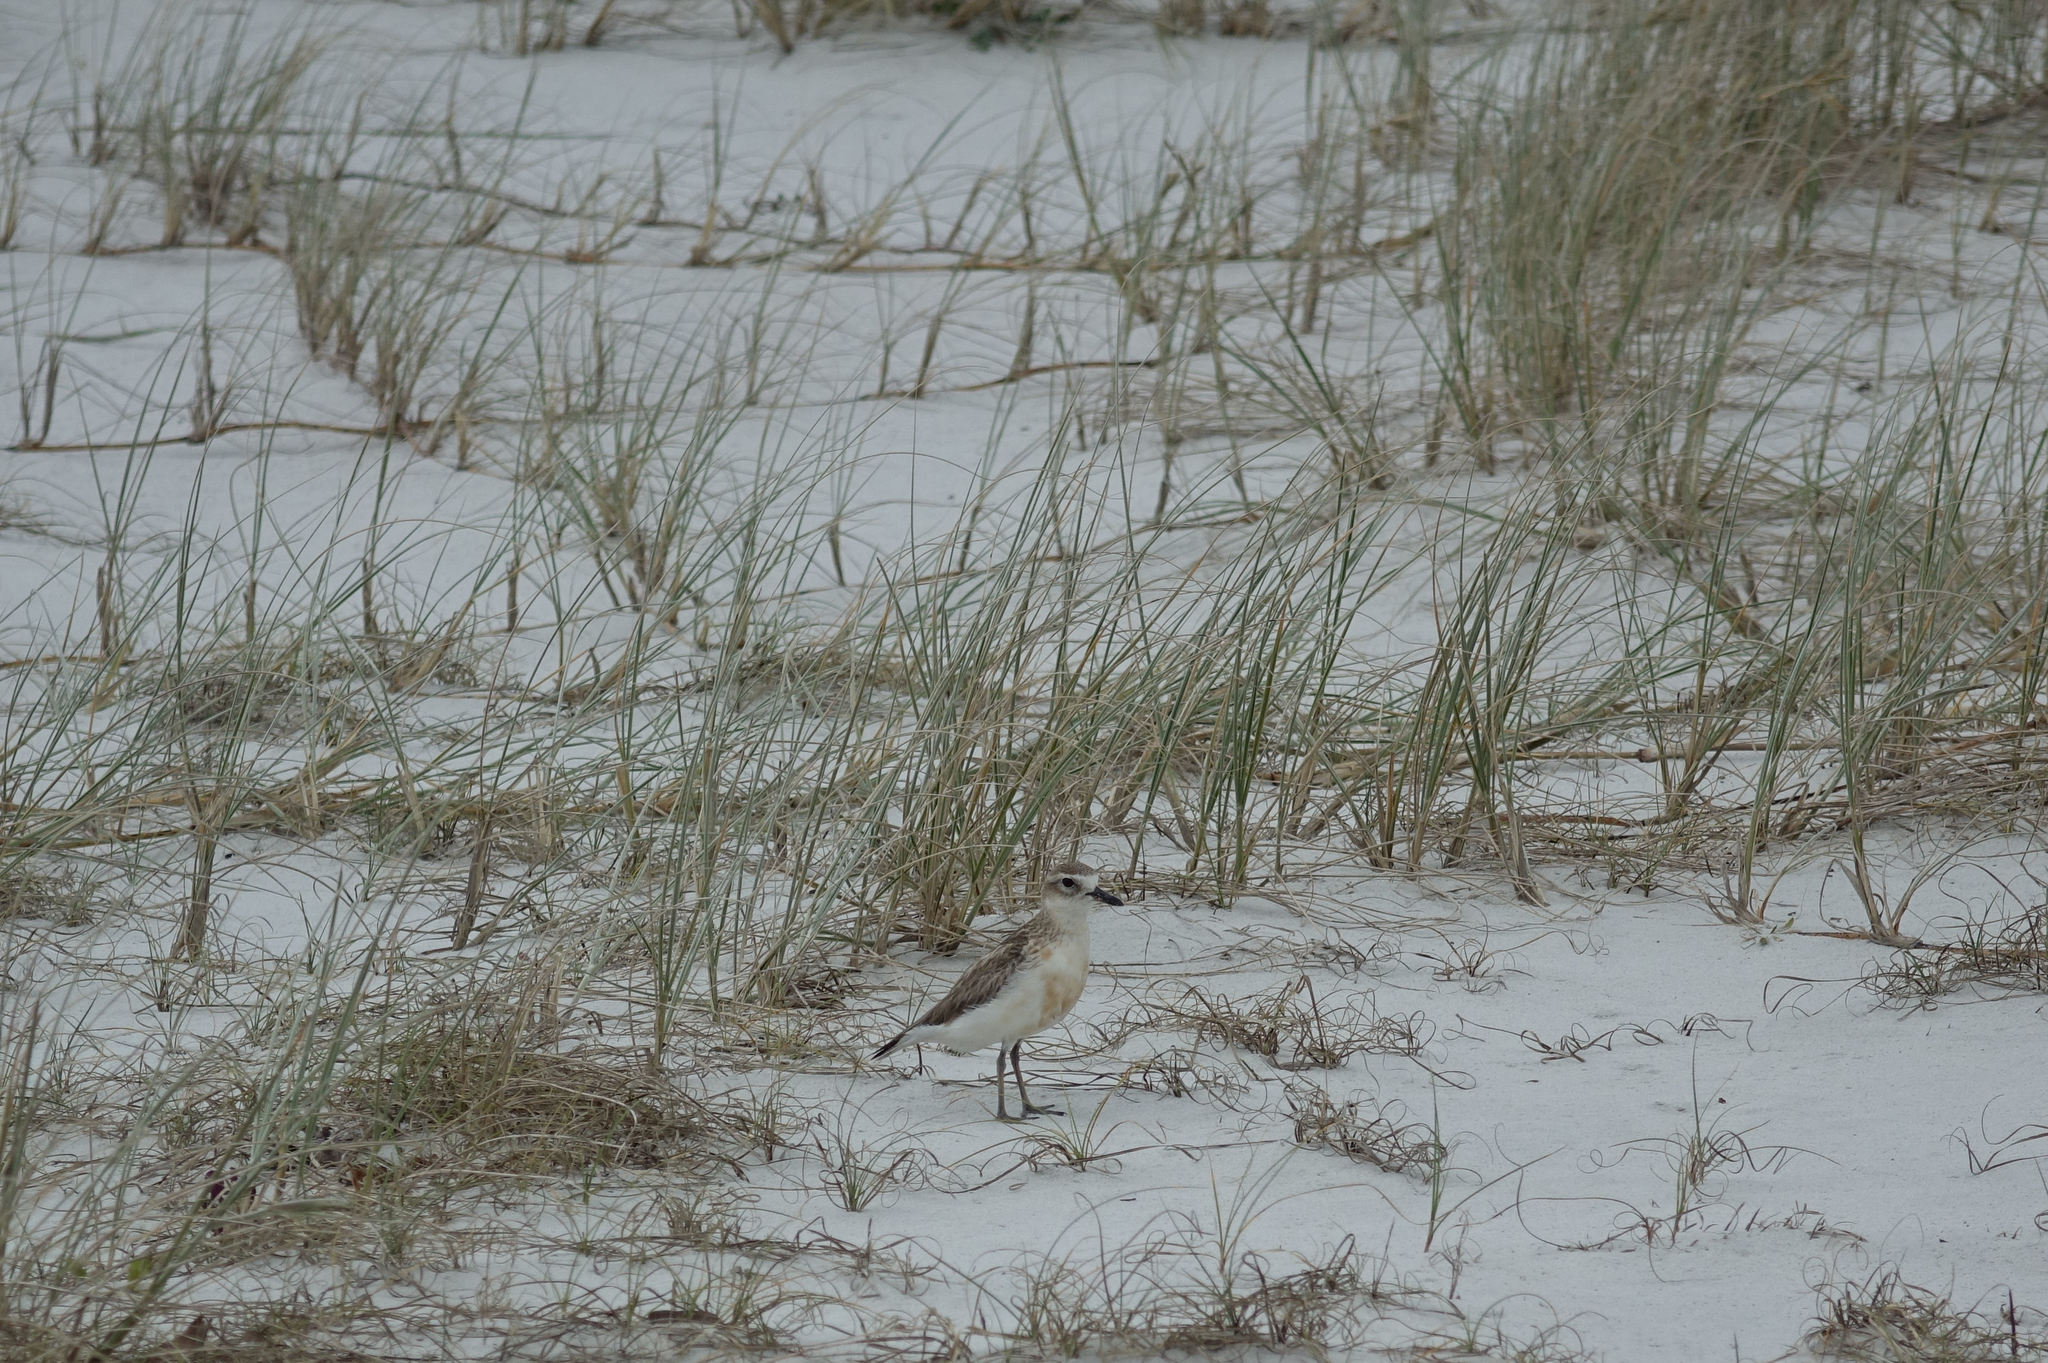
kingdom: Animalia
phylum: Chordata
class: Aves
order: Charadriiformes
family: Charadriidae
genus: Anarhynchus
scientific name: Anarhynchus
